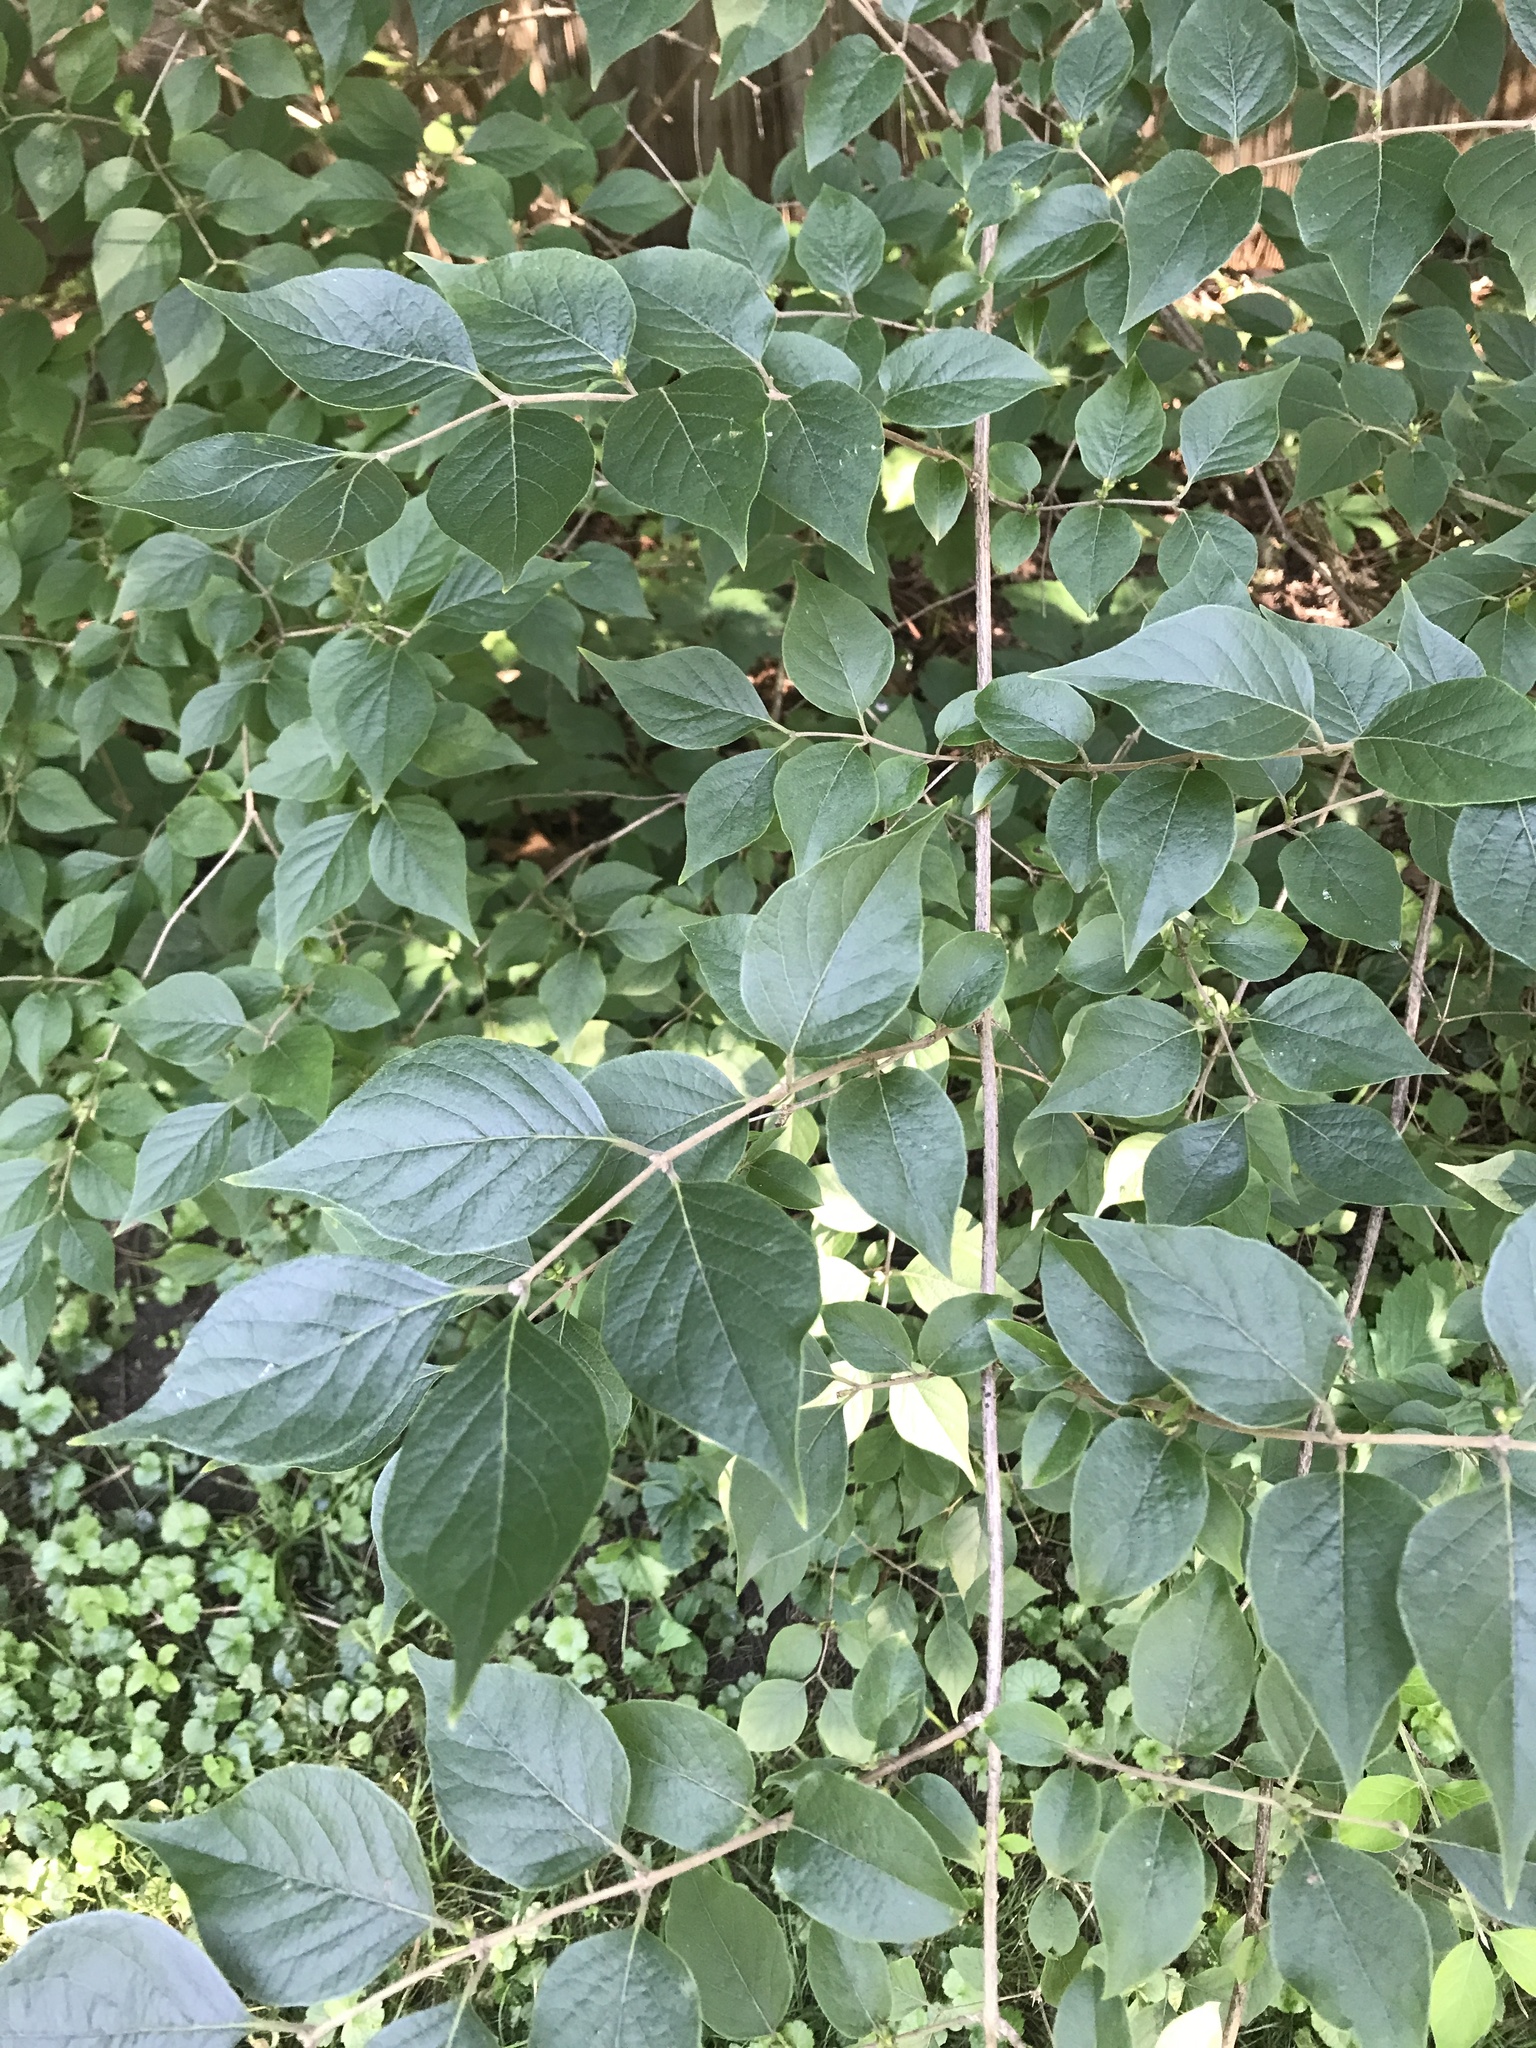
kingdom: Plantae
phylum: Tracheophyta
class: Magnoliopsida
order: Dipsacales
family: Caprifoliaceae
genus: Lonicera
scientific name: Lonicera maackii
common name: Amur honeysuckle
